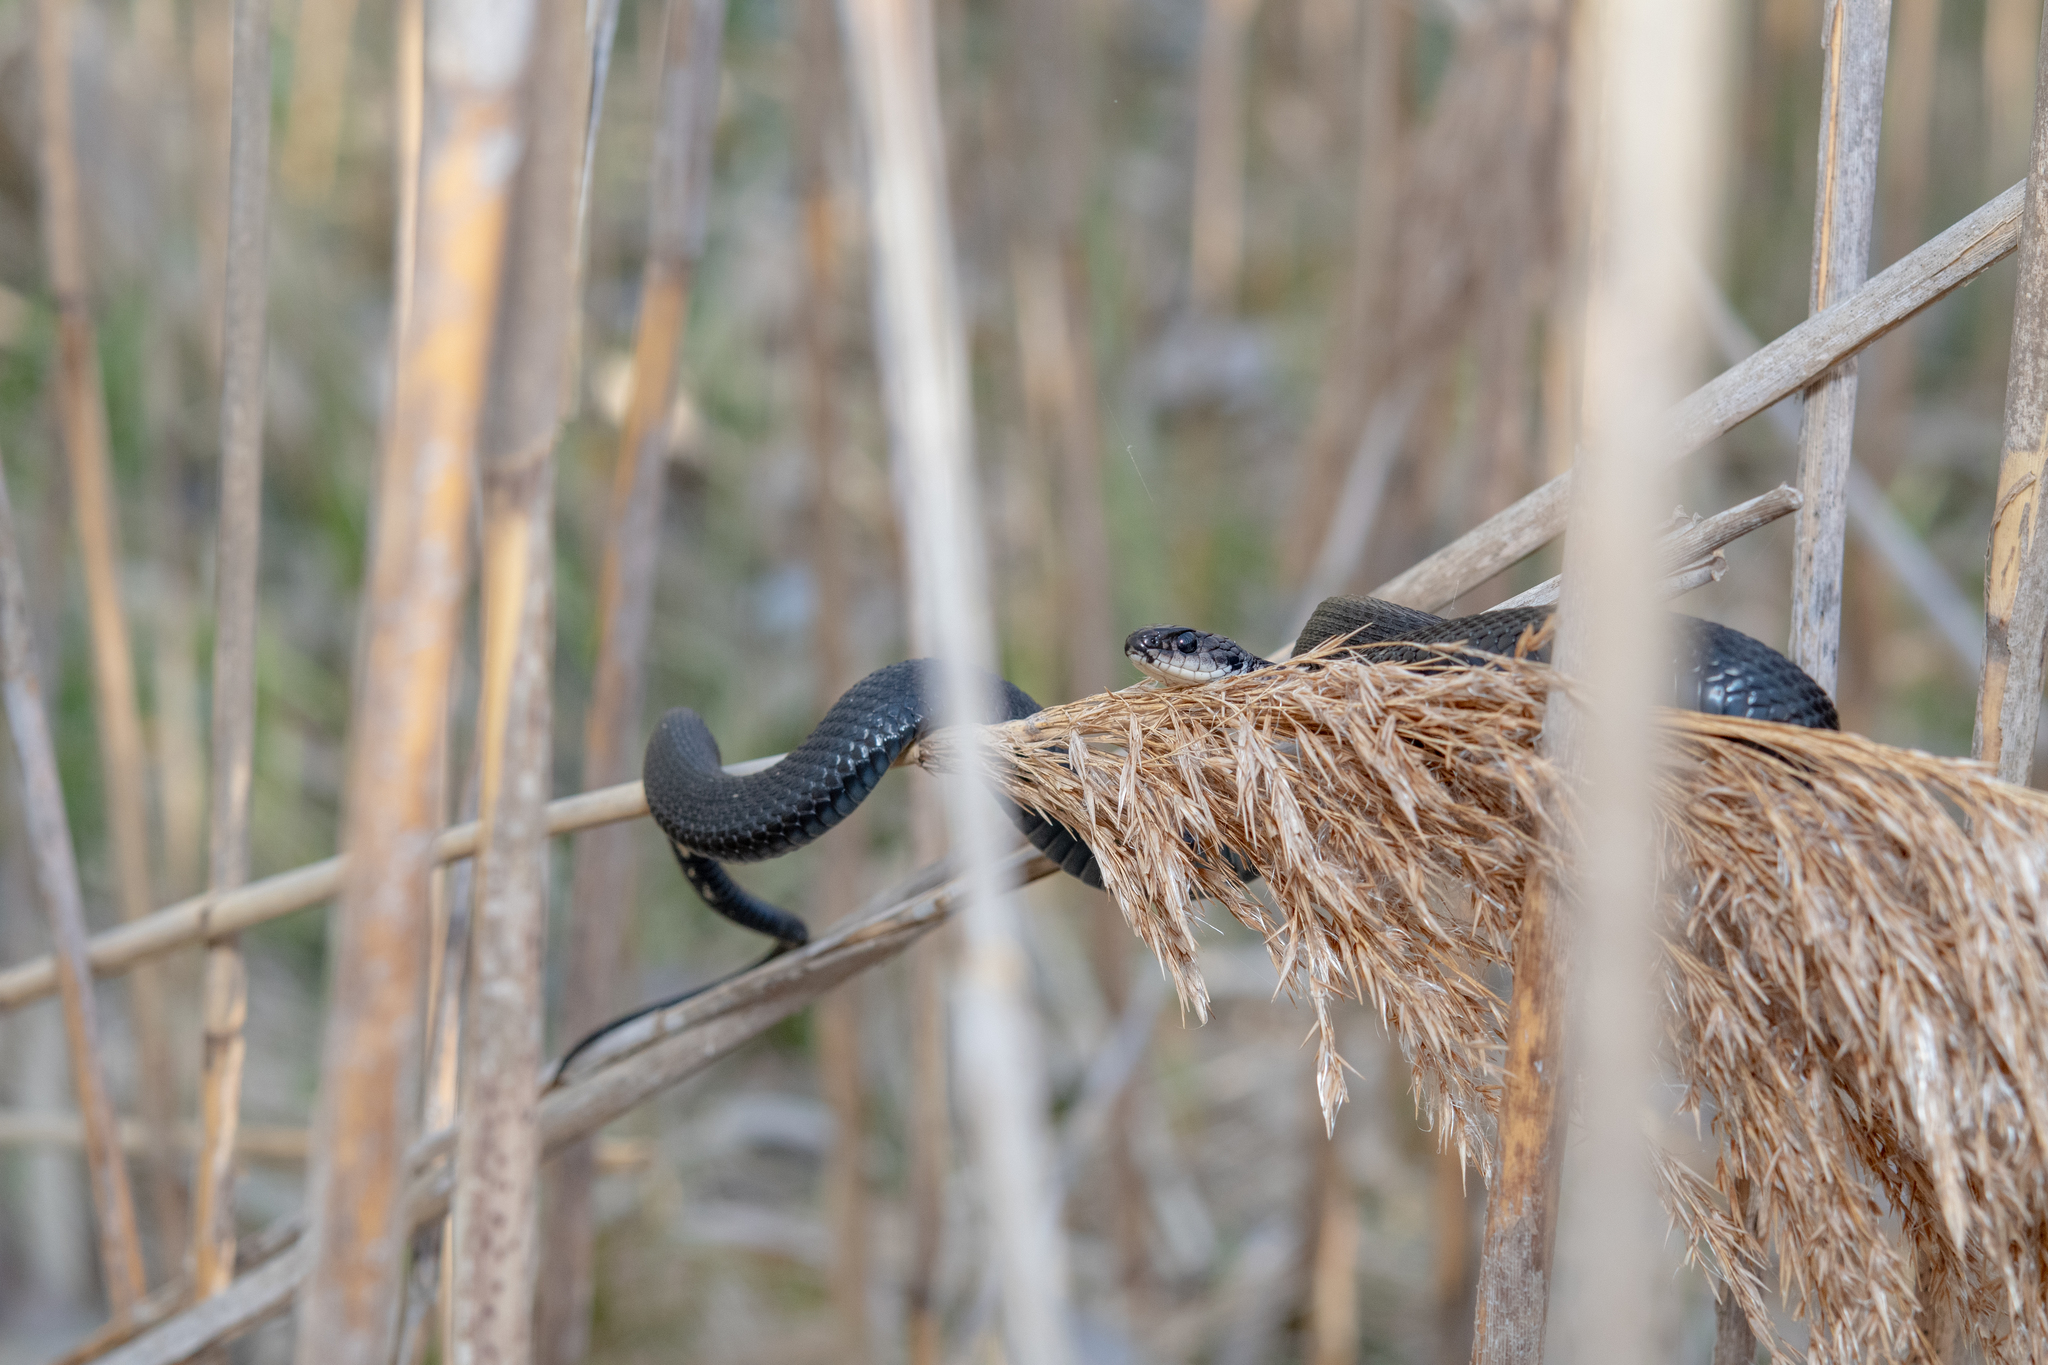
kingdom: Animalia
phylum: Chordata
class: Squamata
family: Colubridae
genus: Thamnophis
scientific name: Thamnophis sirtalis
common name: Common garter snake
